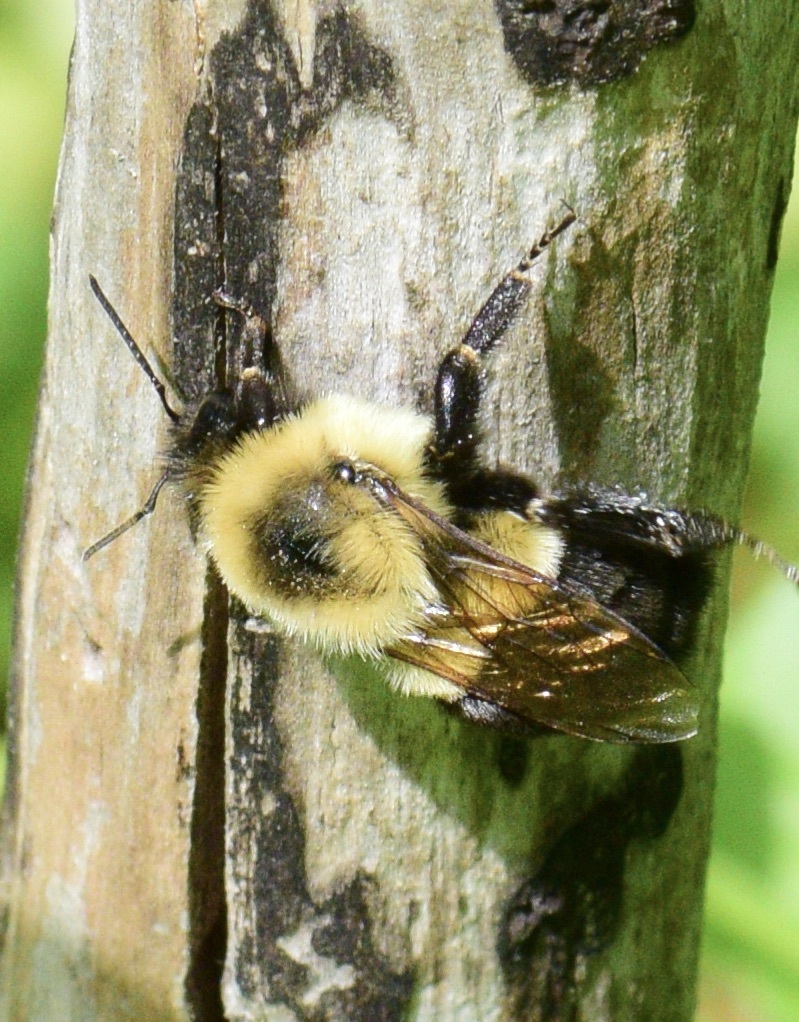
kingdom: Animalia
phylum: Arthropoda
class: Insecta
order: Hymenoptera
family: Apidae
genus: Bombus
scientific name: Bombus impatiens
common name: Common eastern bumble bee
